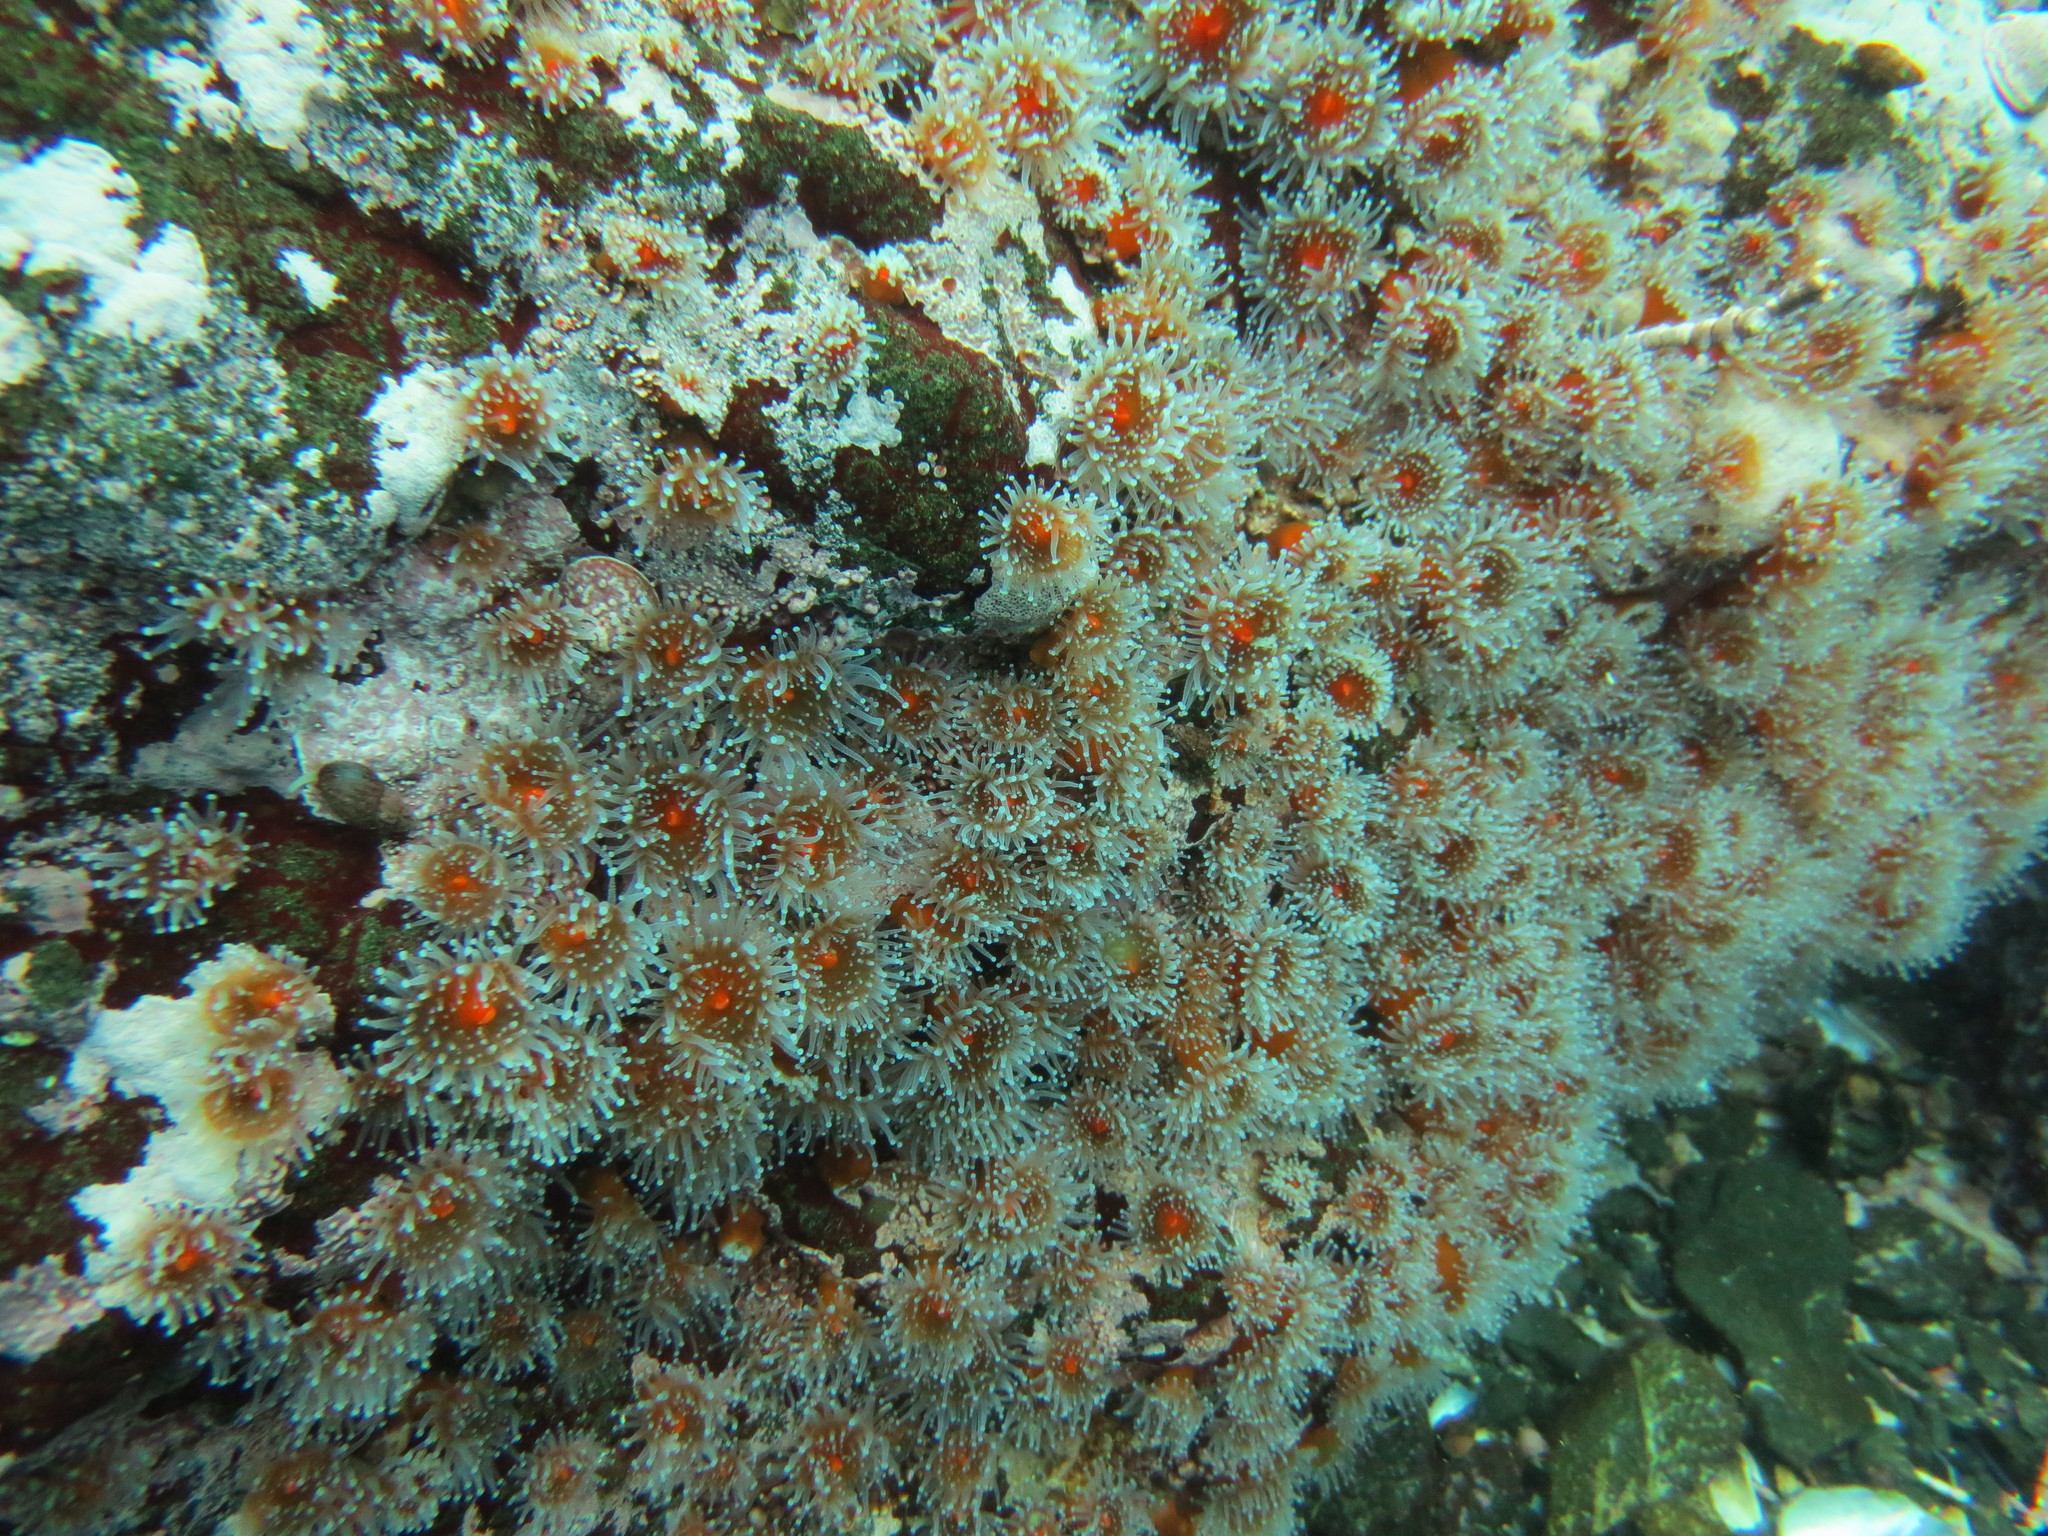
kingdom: Animalia
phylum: Cnidaria
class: Anthozoa
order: Corallimorpharia
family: Corallimorphidae
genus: Corynactis
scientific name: Corynactis californica
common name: Strawberry corallimorpharian
